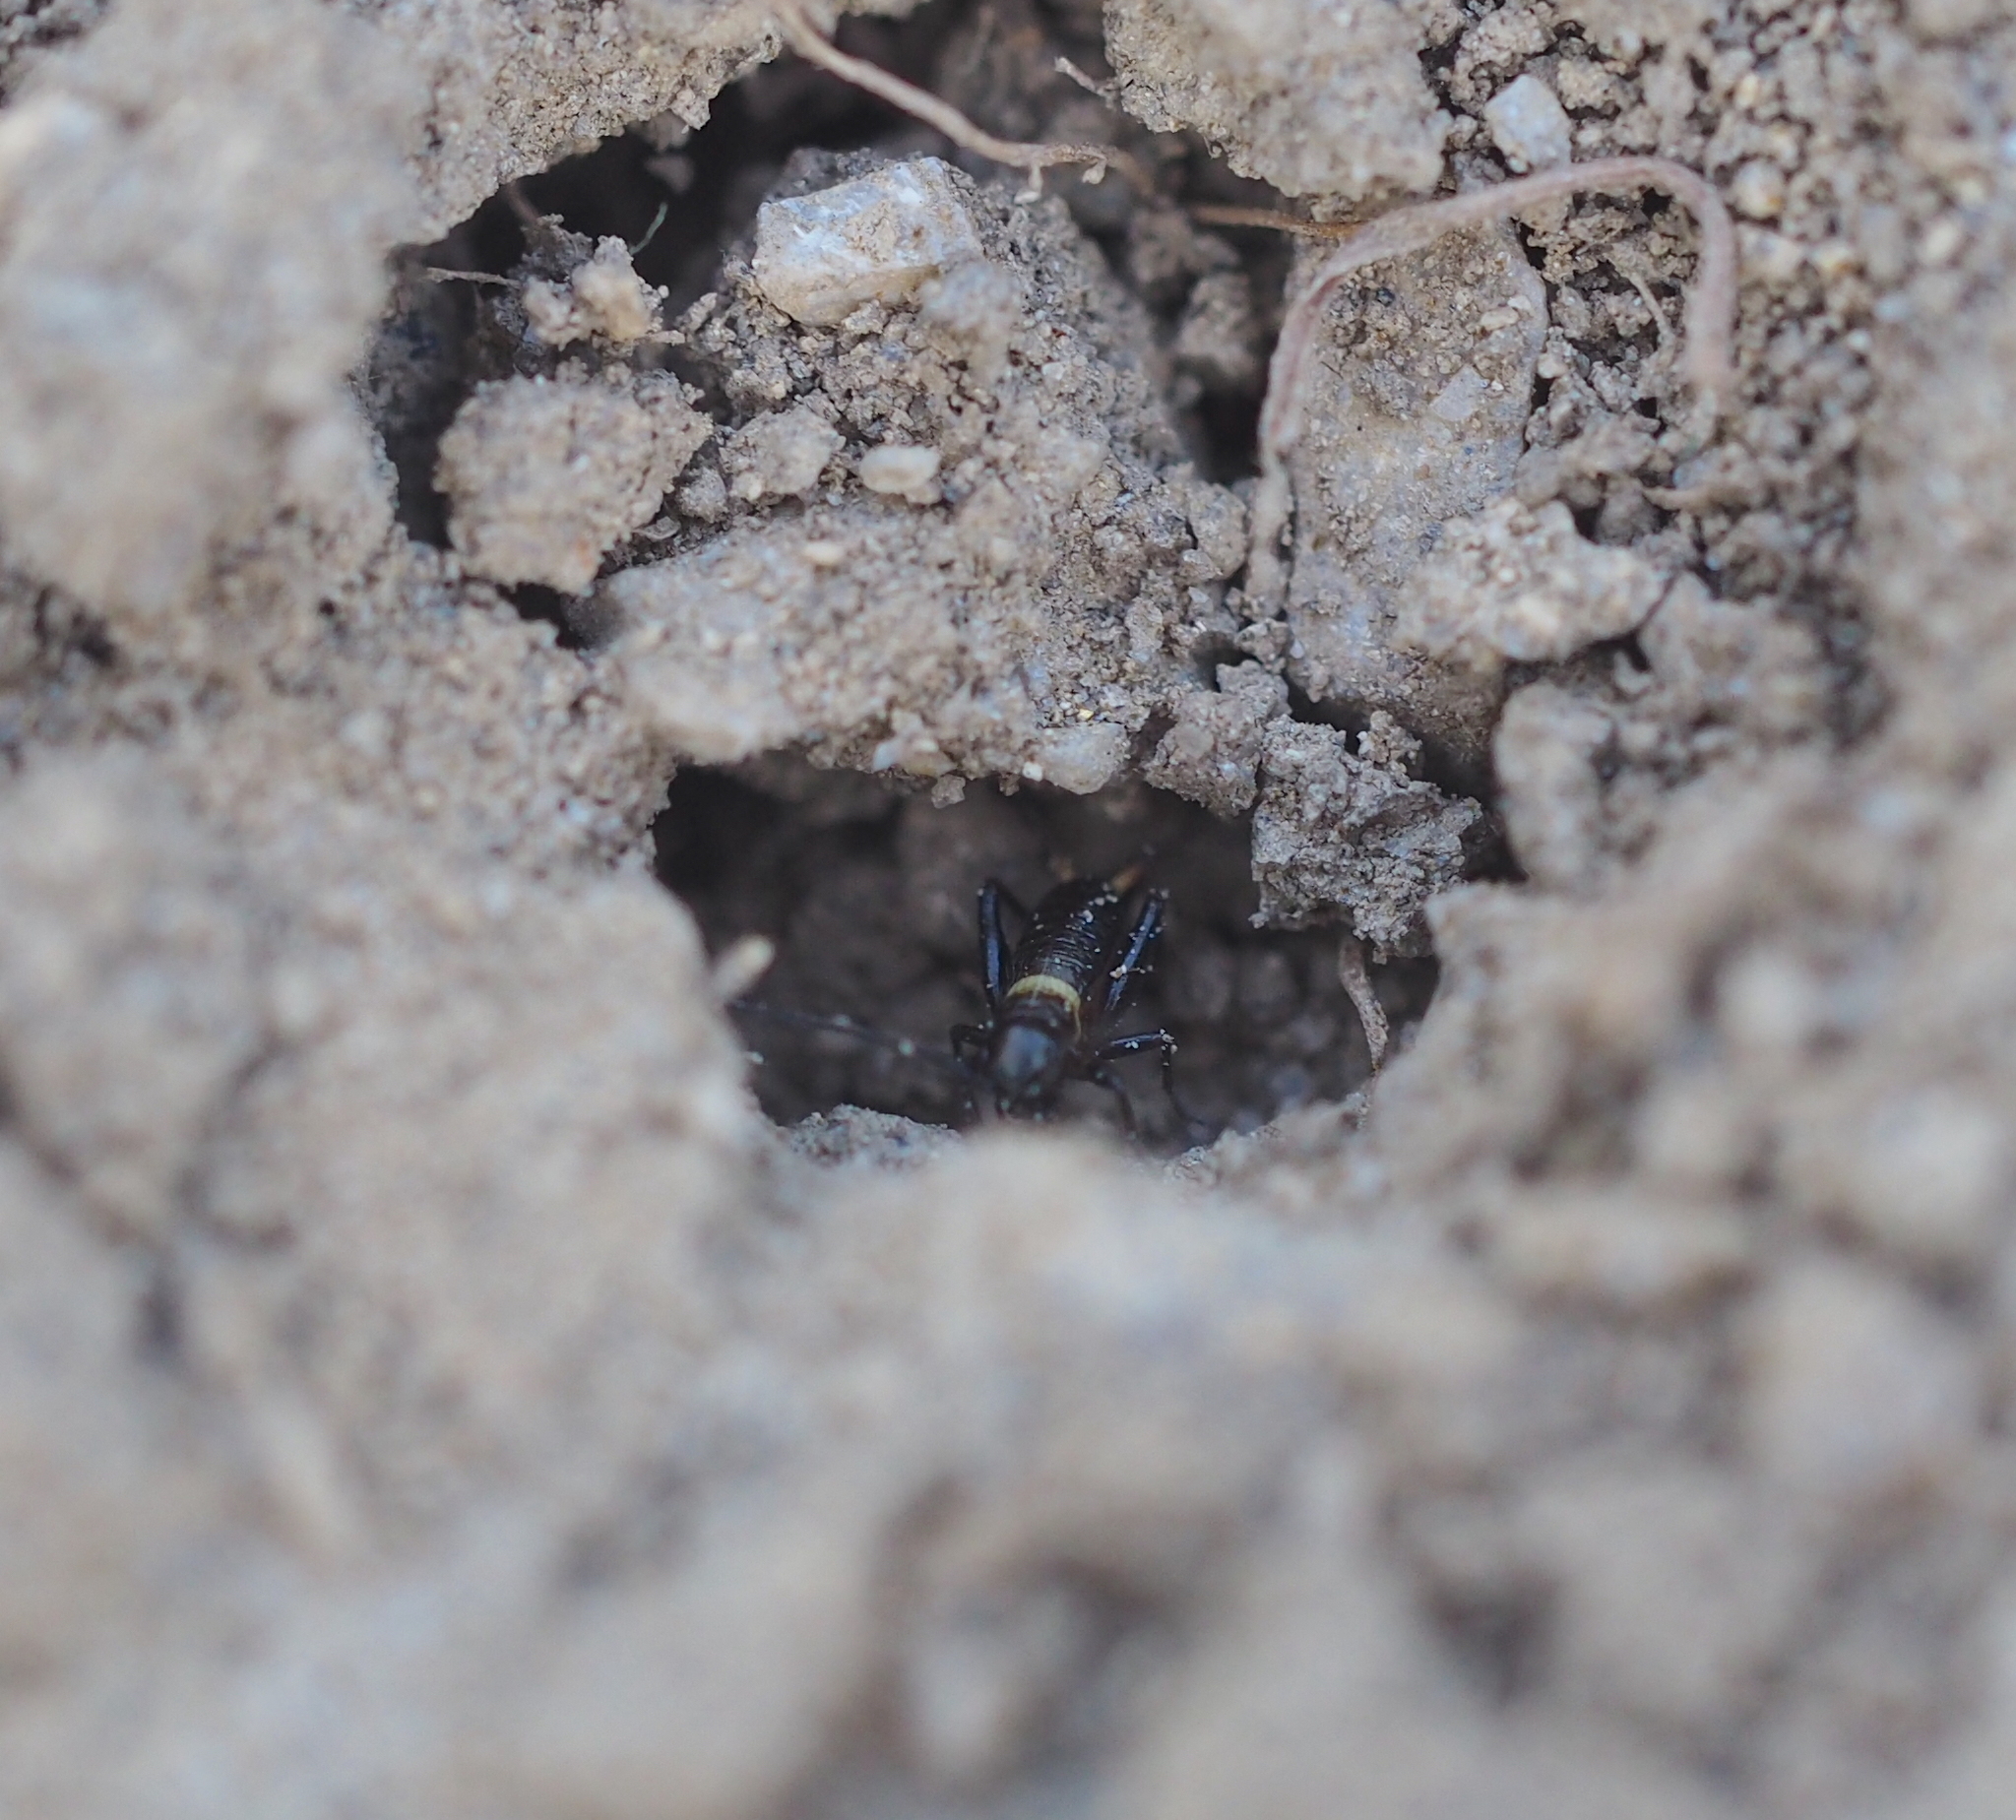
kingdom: Animalia
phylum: Arthropoda
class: Insecta
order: Orthoptera
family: Gryllidae
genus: Gryllus
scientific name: Gryllus campestris
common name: Field cricket
